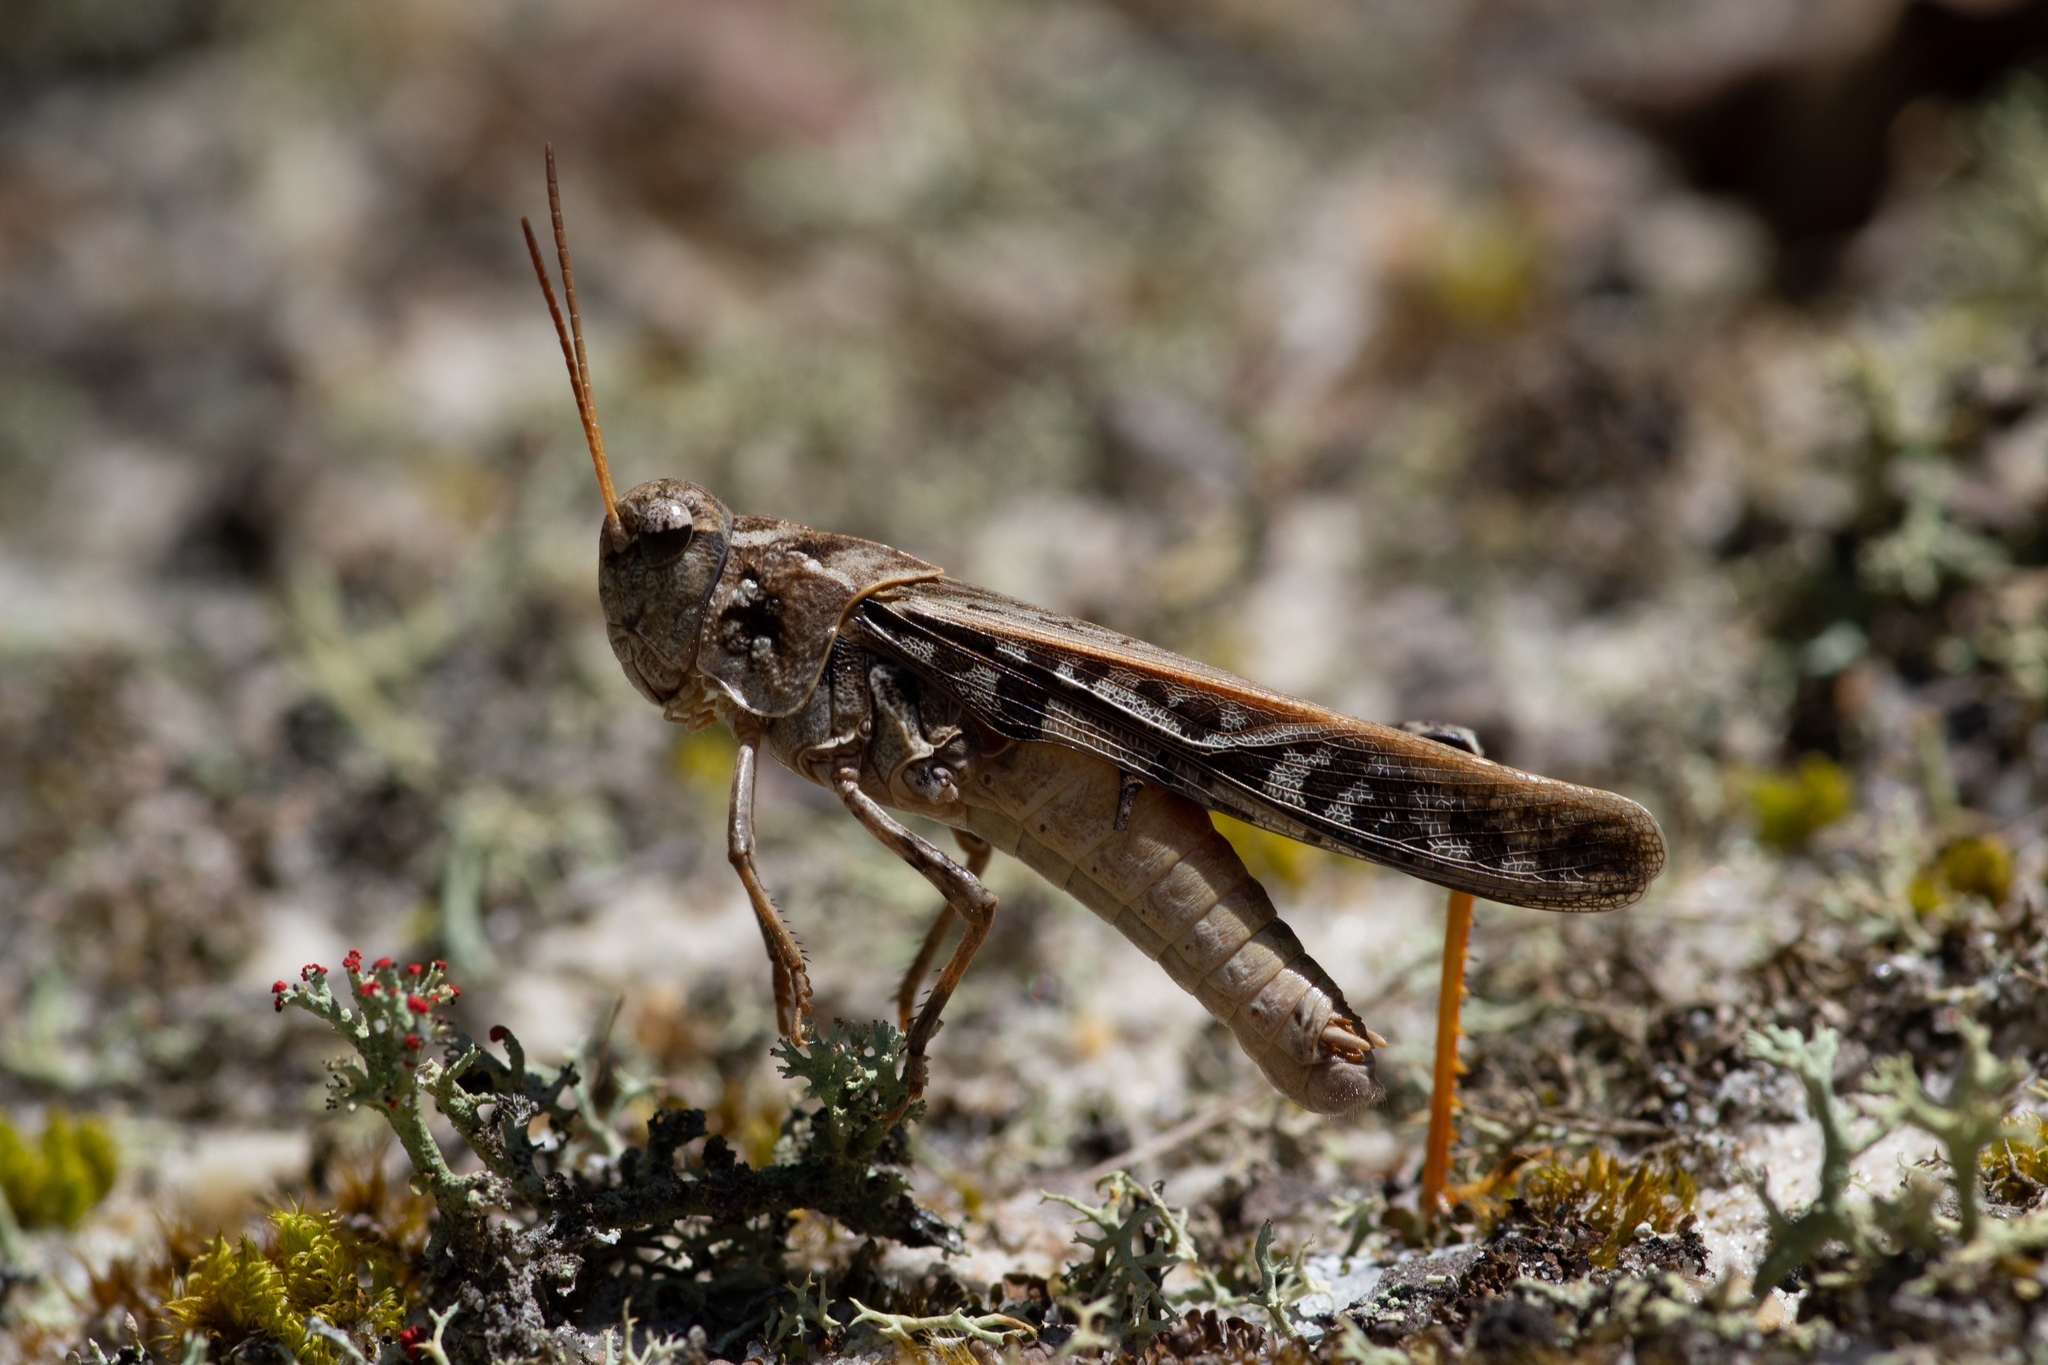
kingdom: Animalia
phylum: Arthropoda
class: Insecta
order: Orthoptera
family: Acrididae
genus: Pardalophora
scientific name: Pardalophora phoenicoptera
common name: Orange-winged grasshopper
